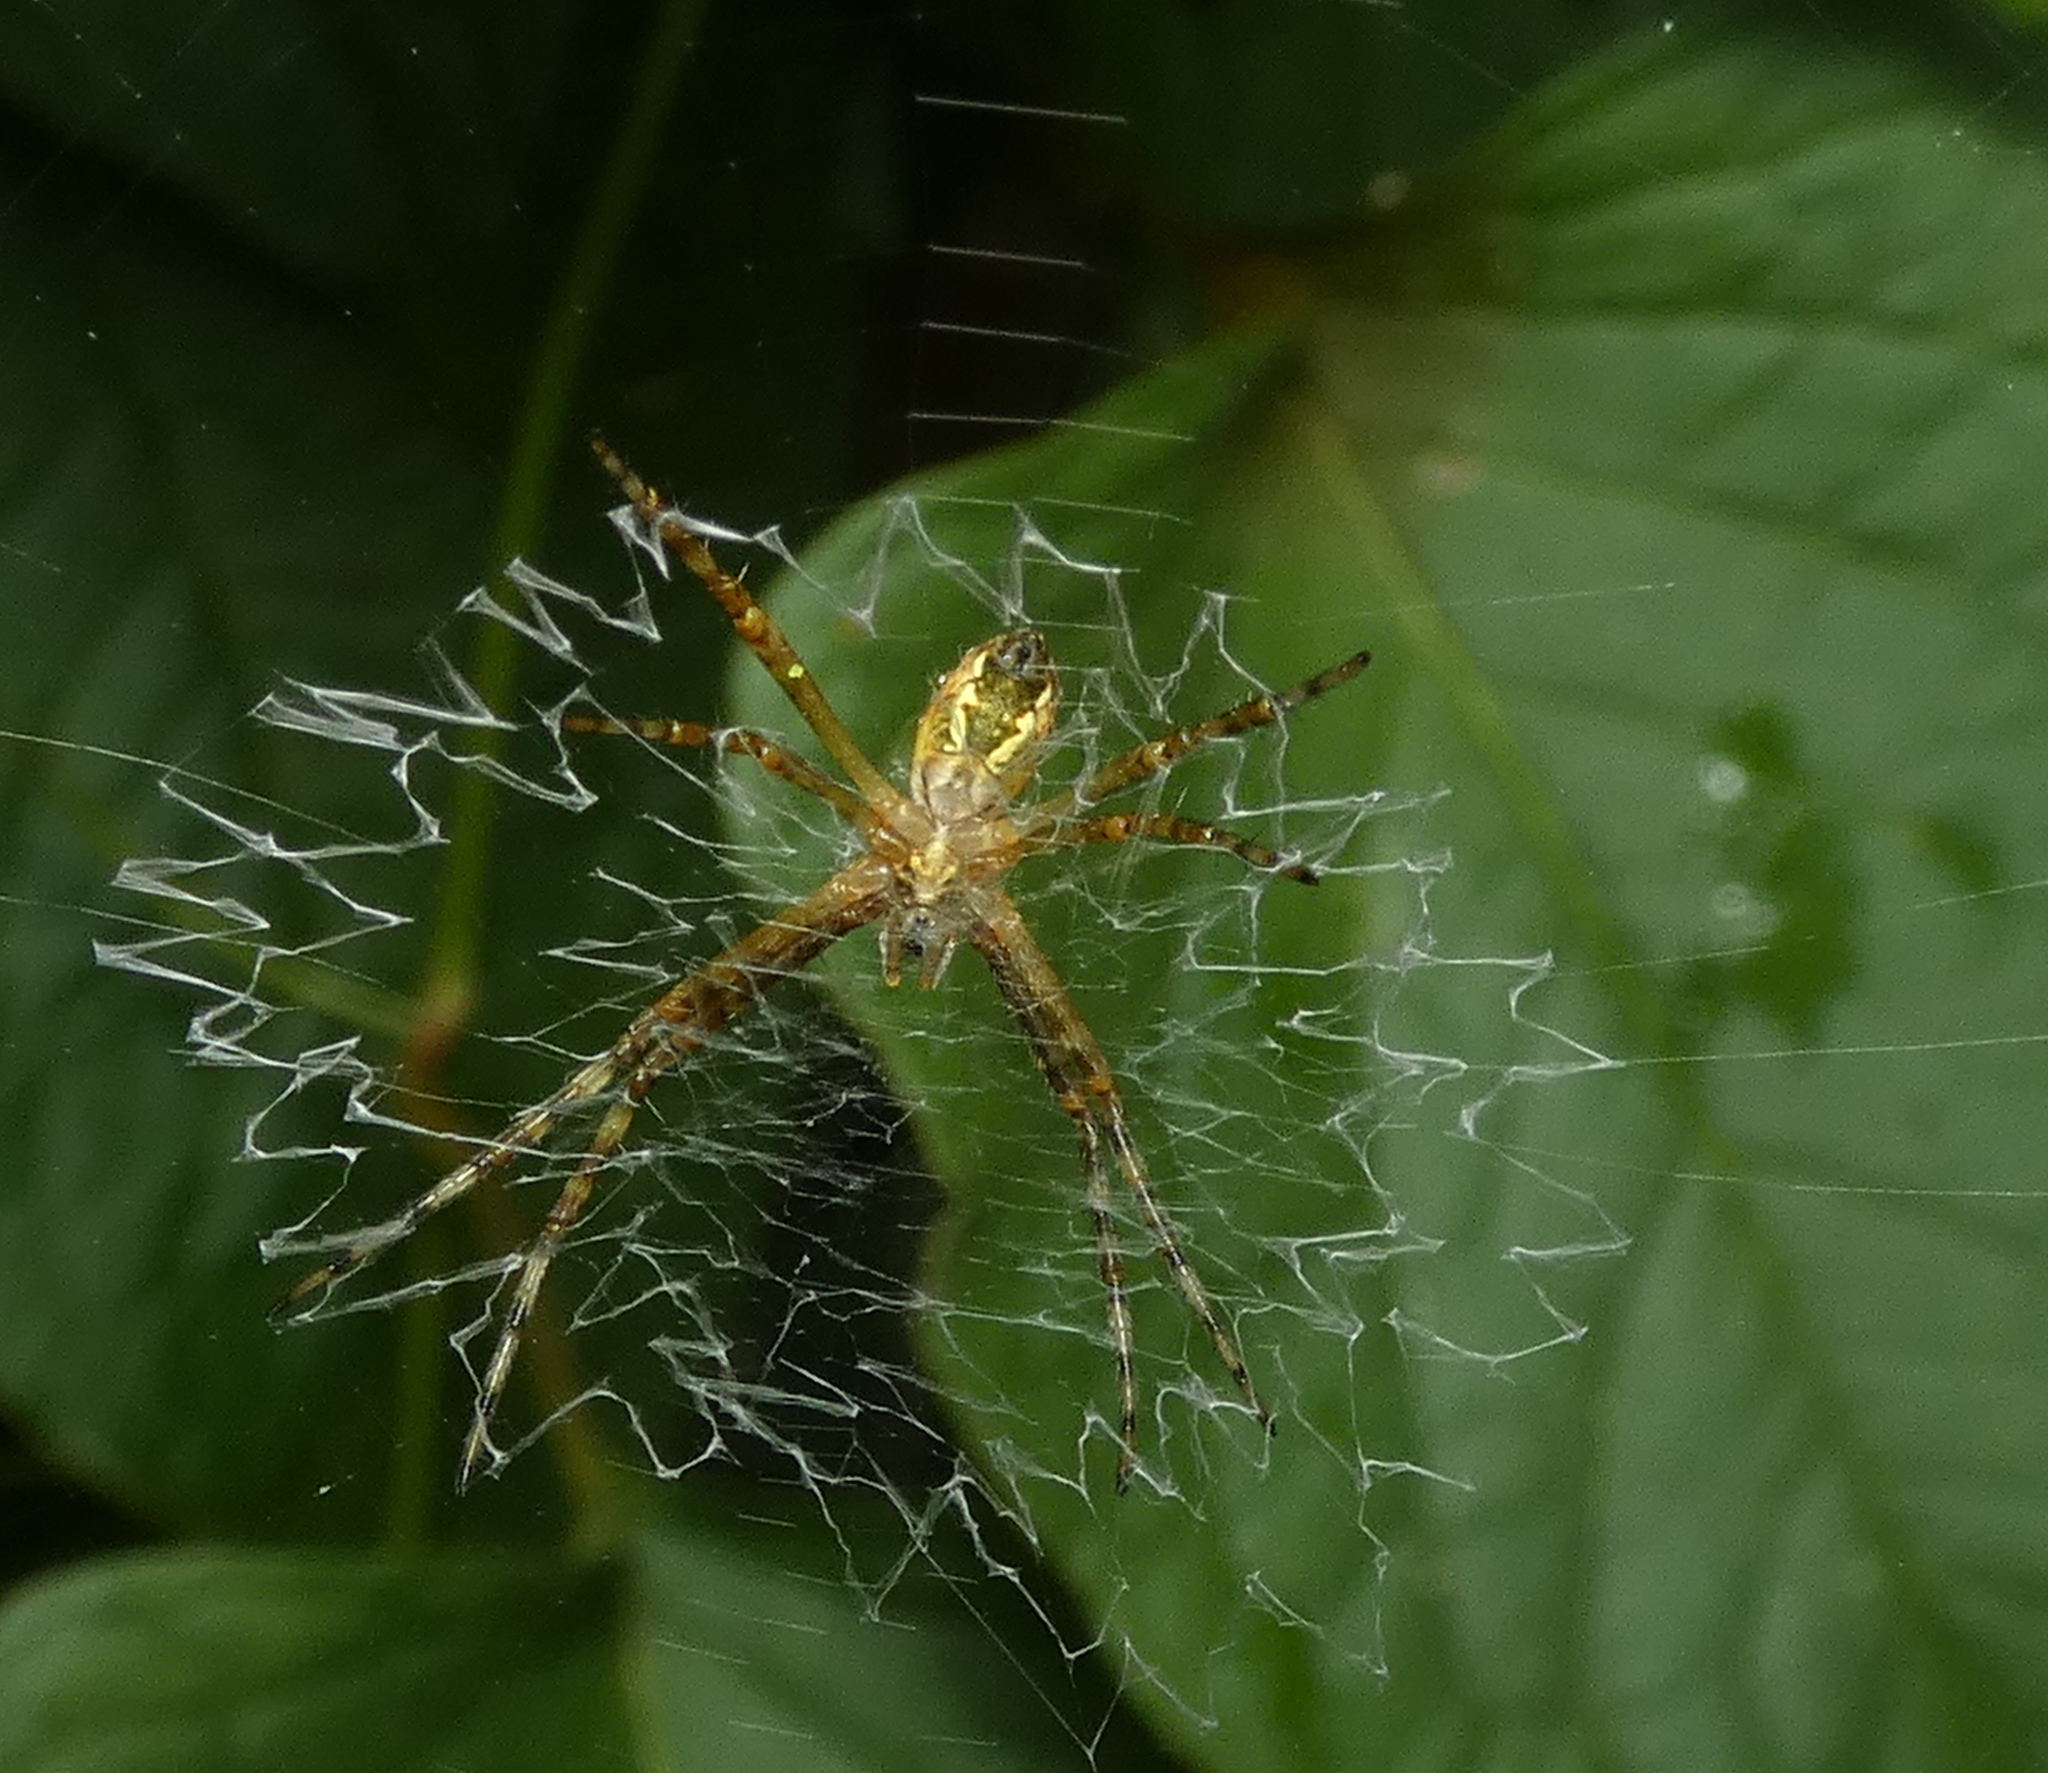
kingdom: Animalia
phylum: Arthropoda
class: Arachnida
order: Araneae
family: Araneidae
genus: Argiope
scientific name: Argiope argentata
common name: Orb weavers
